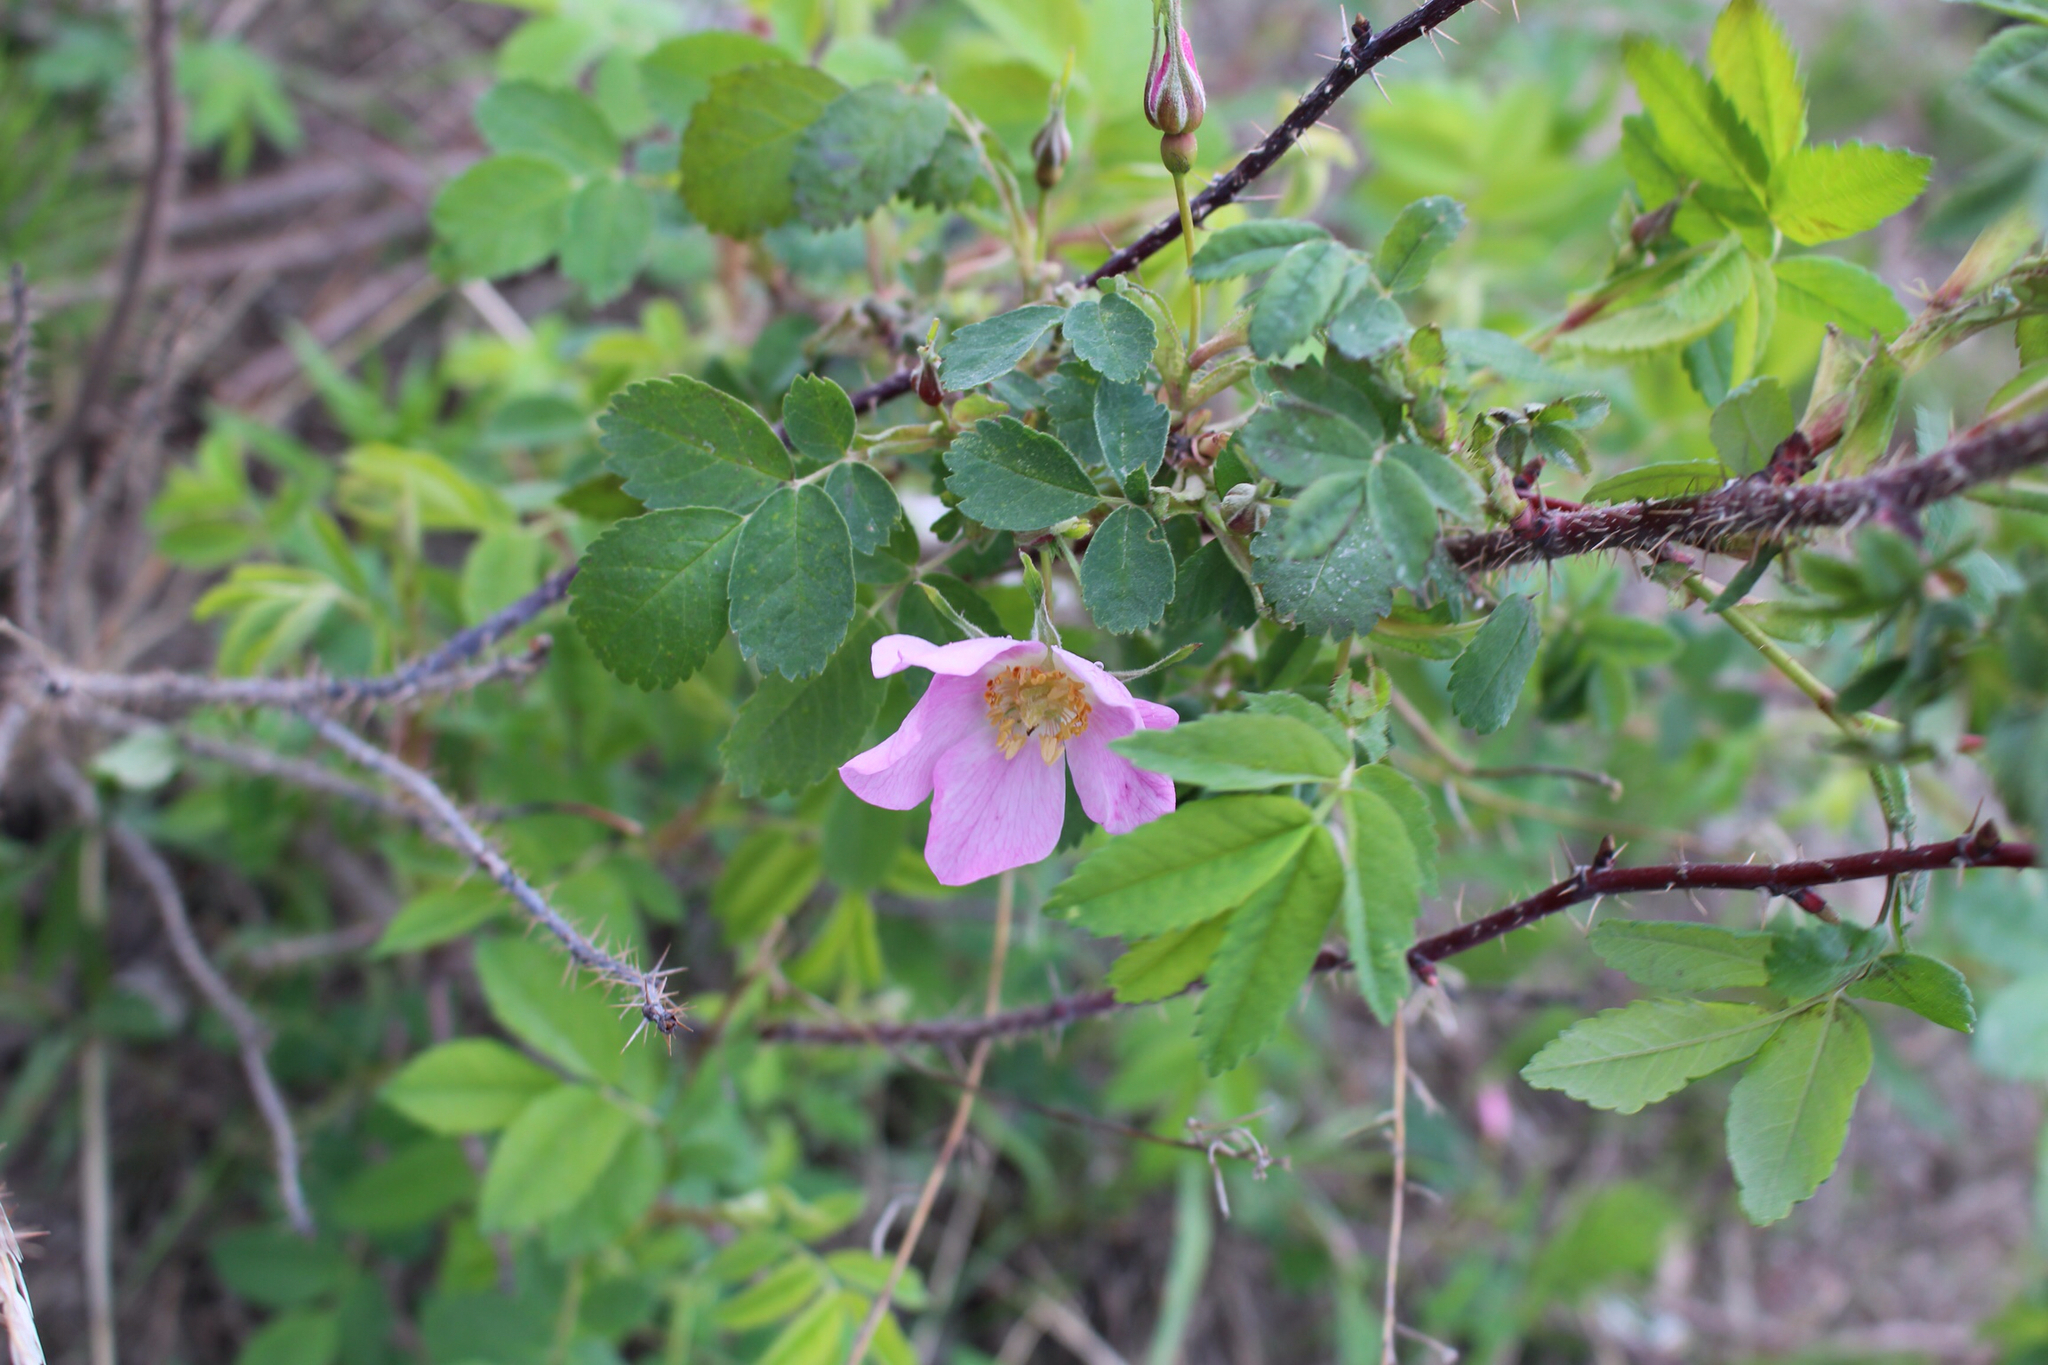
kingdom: Plantae
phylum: Tracheophyta
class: Magnoliopsida
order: Rosales
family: Rosaceae
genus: Rosa
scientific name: Rosa acicularis
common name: Prickly rose
